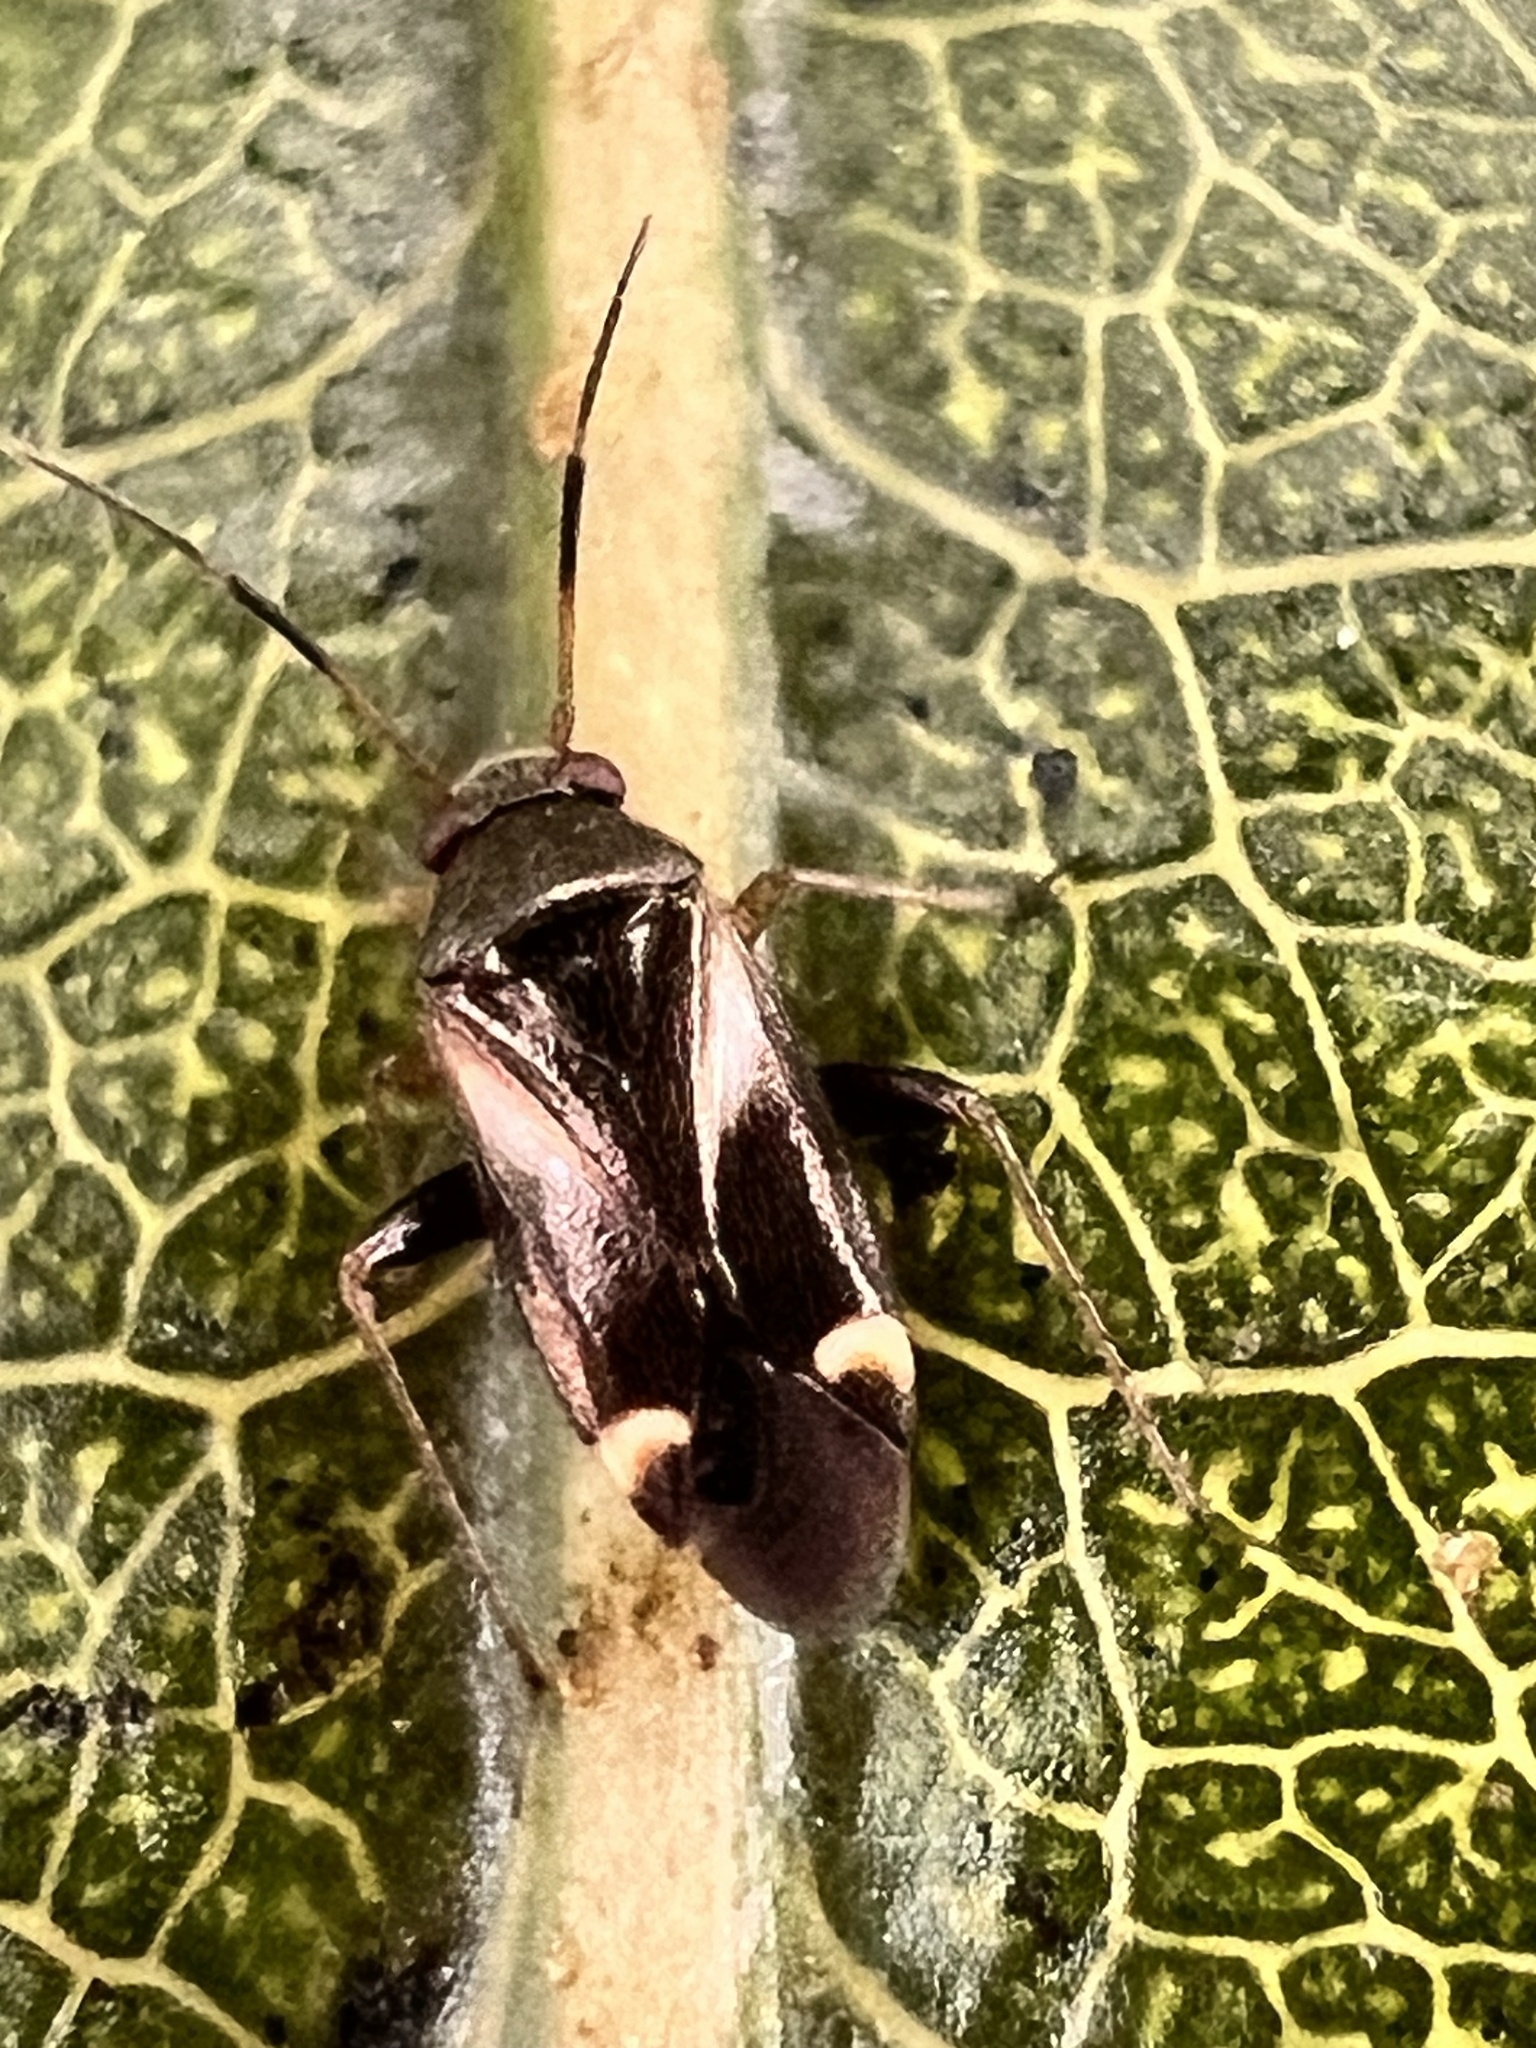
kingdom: Animalia
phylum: Arthropoda
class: Insecta
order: Hemiptera
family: Miridae
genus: Ausejanus
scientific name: Ausejanus albisignatus
